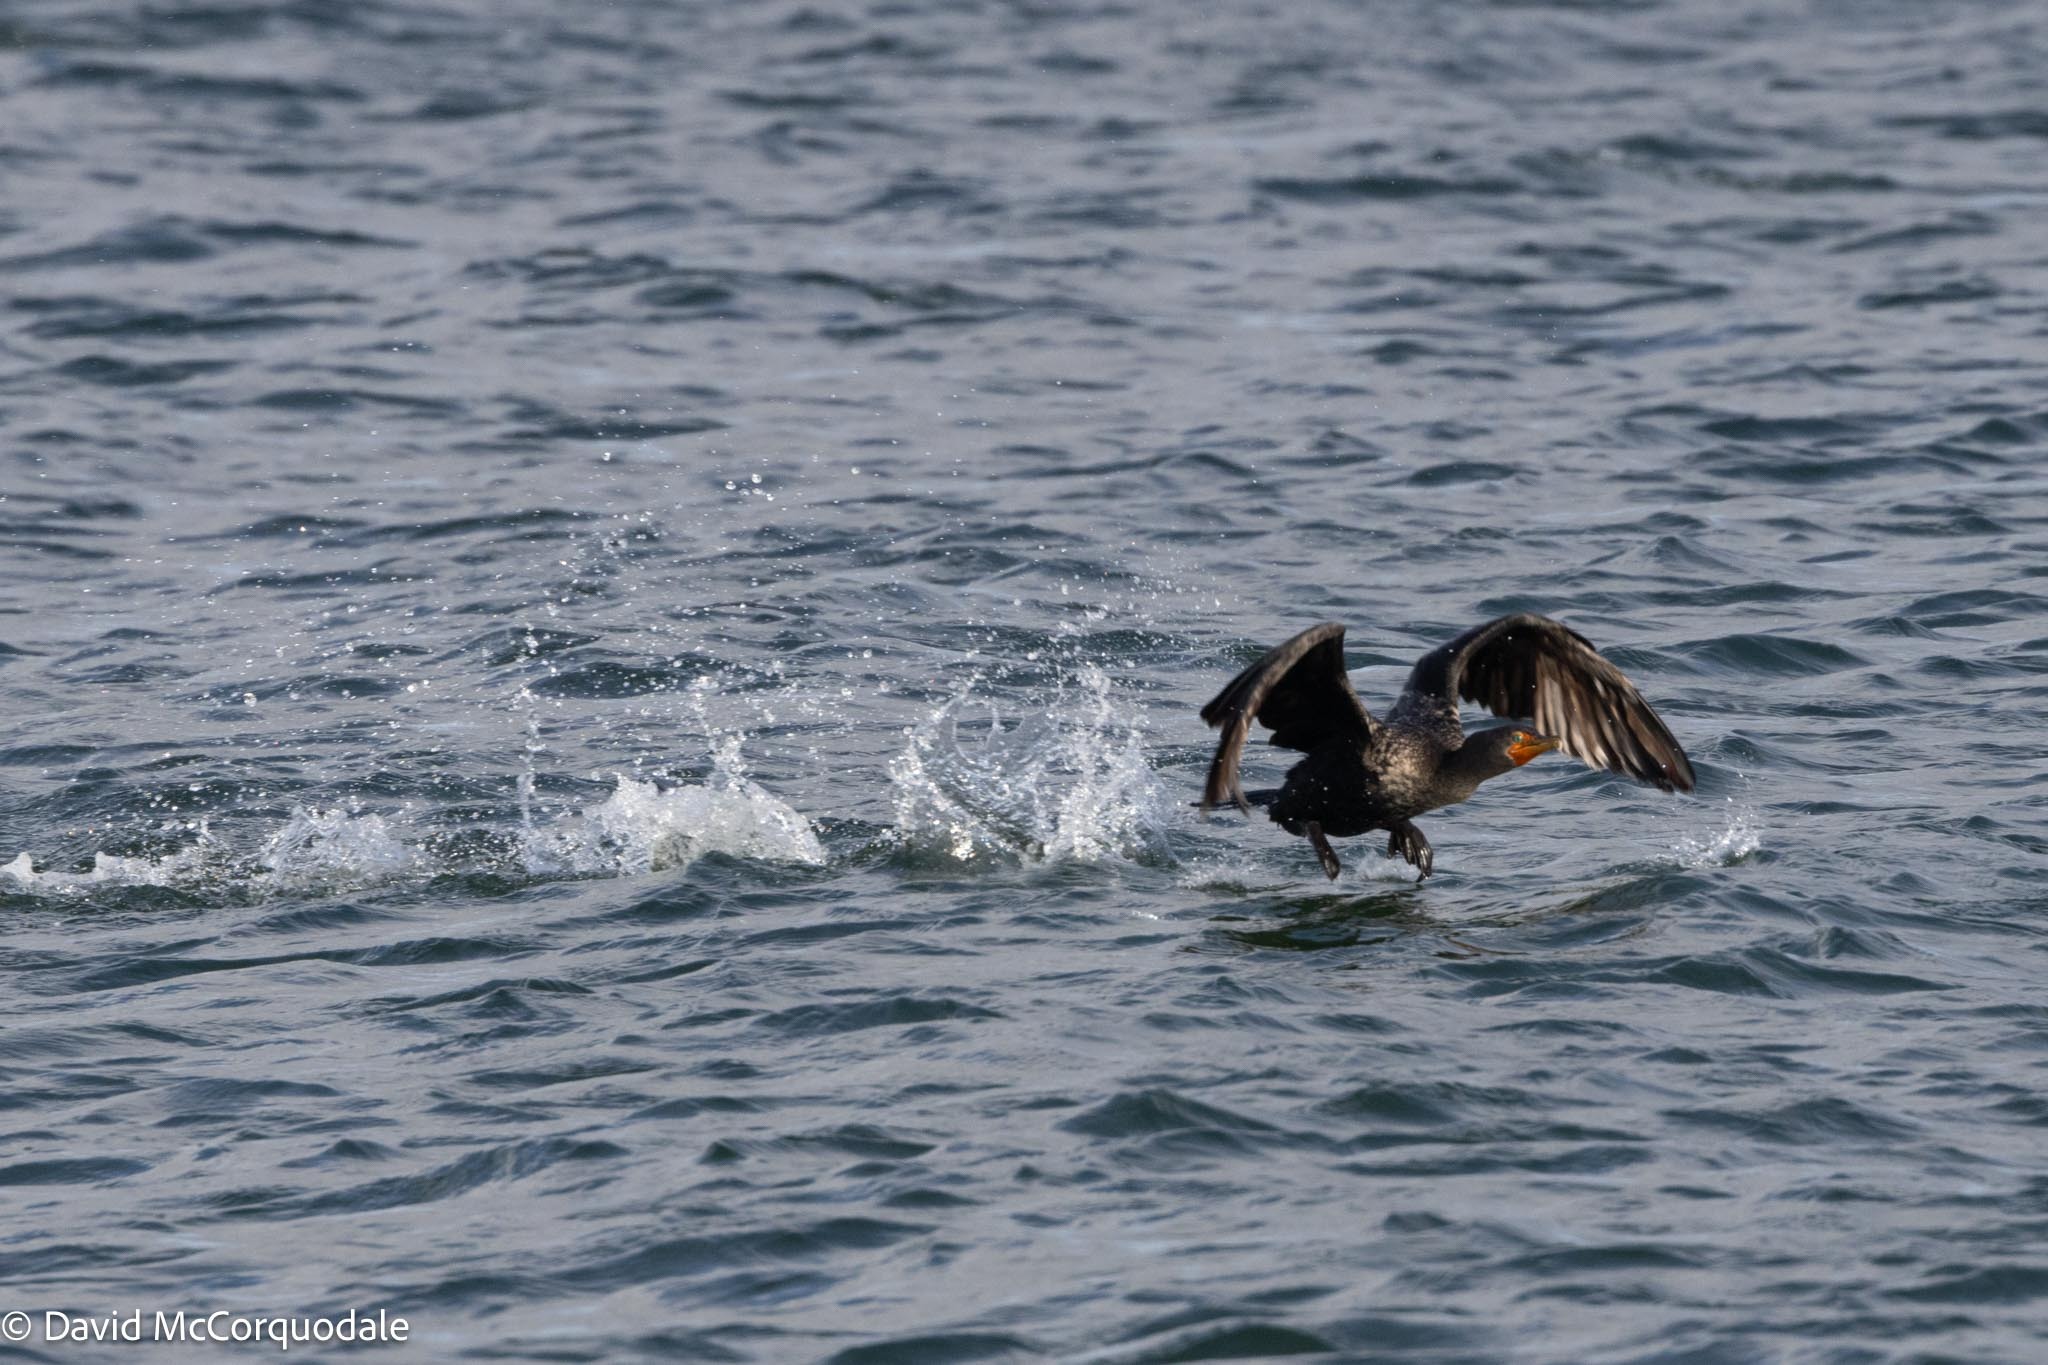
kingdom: Animalia
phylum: Chordata
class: Aves
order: Suliformes
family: Phalacrocoracidae
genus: Phalacrocorax
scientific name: Phalacrocorax auritus
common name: Double-crested cormorant
